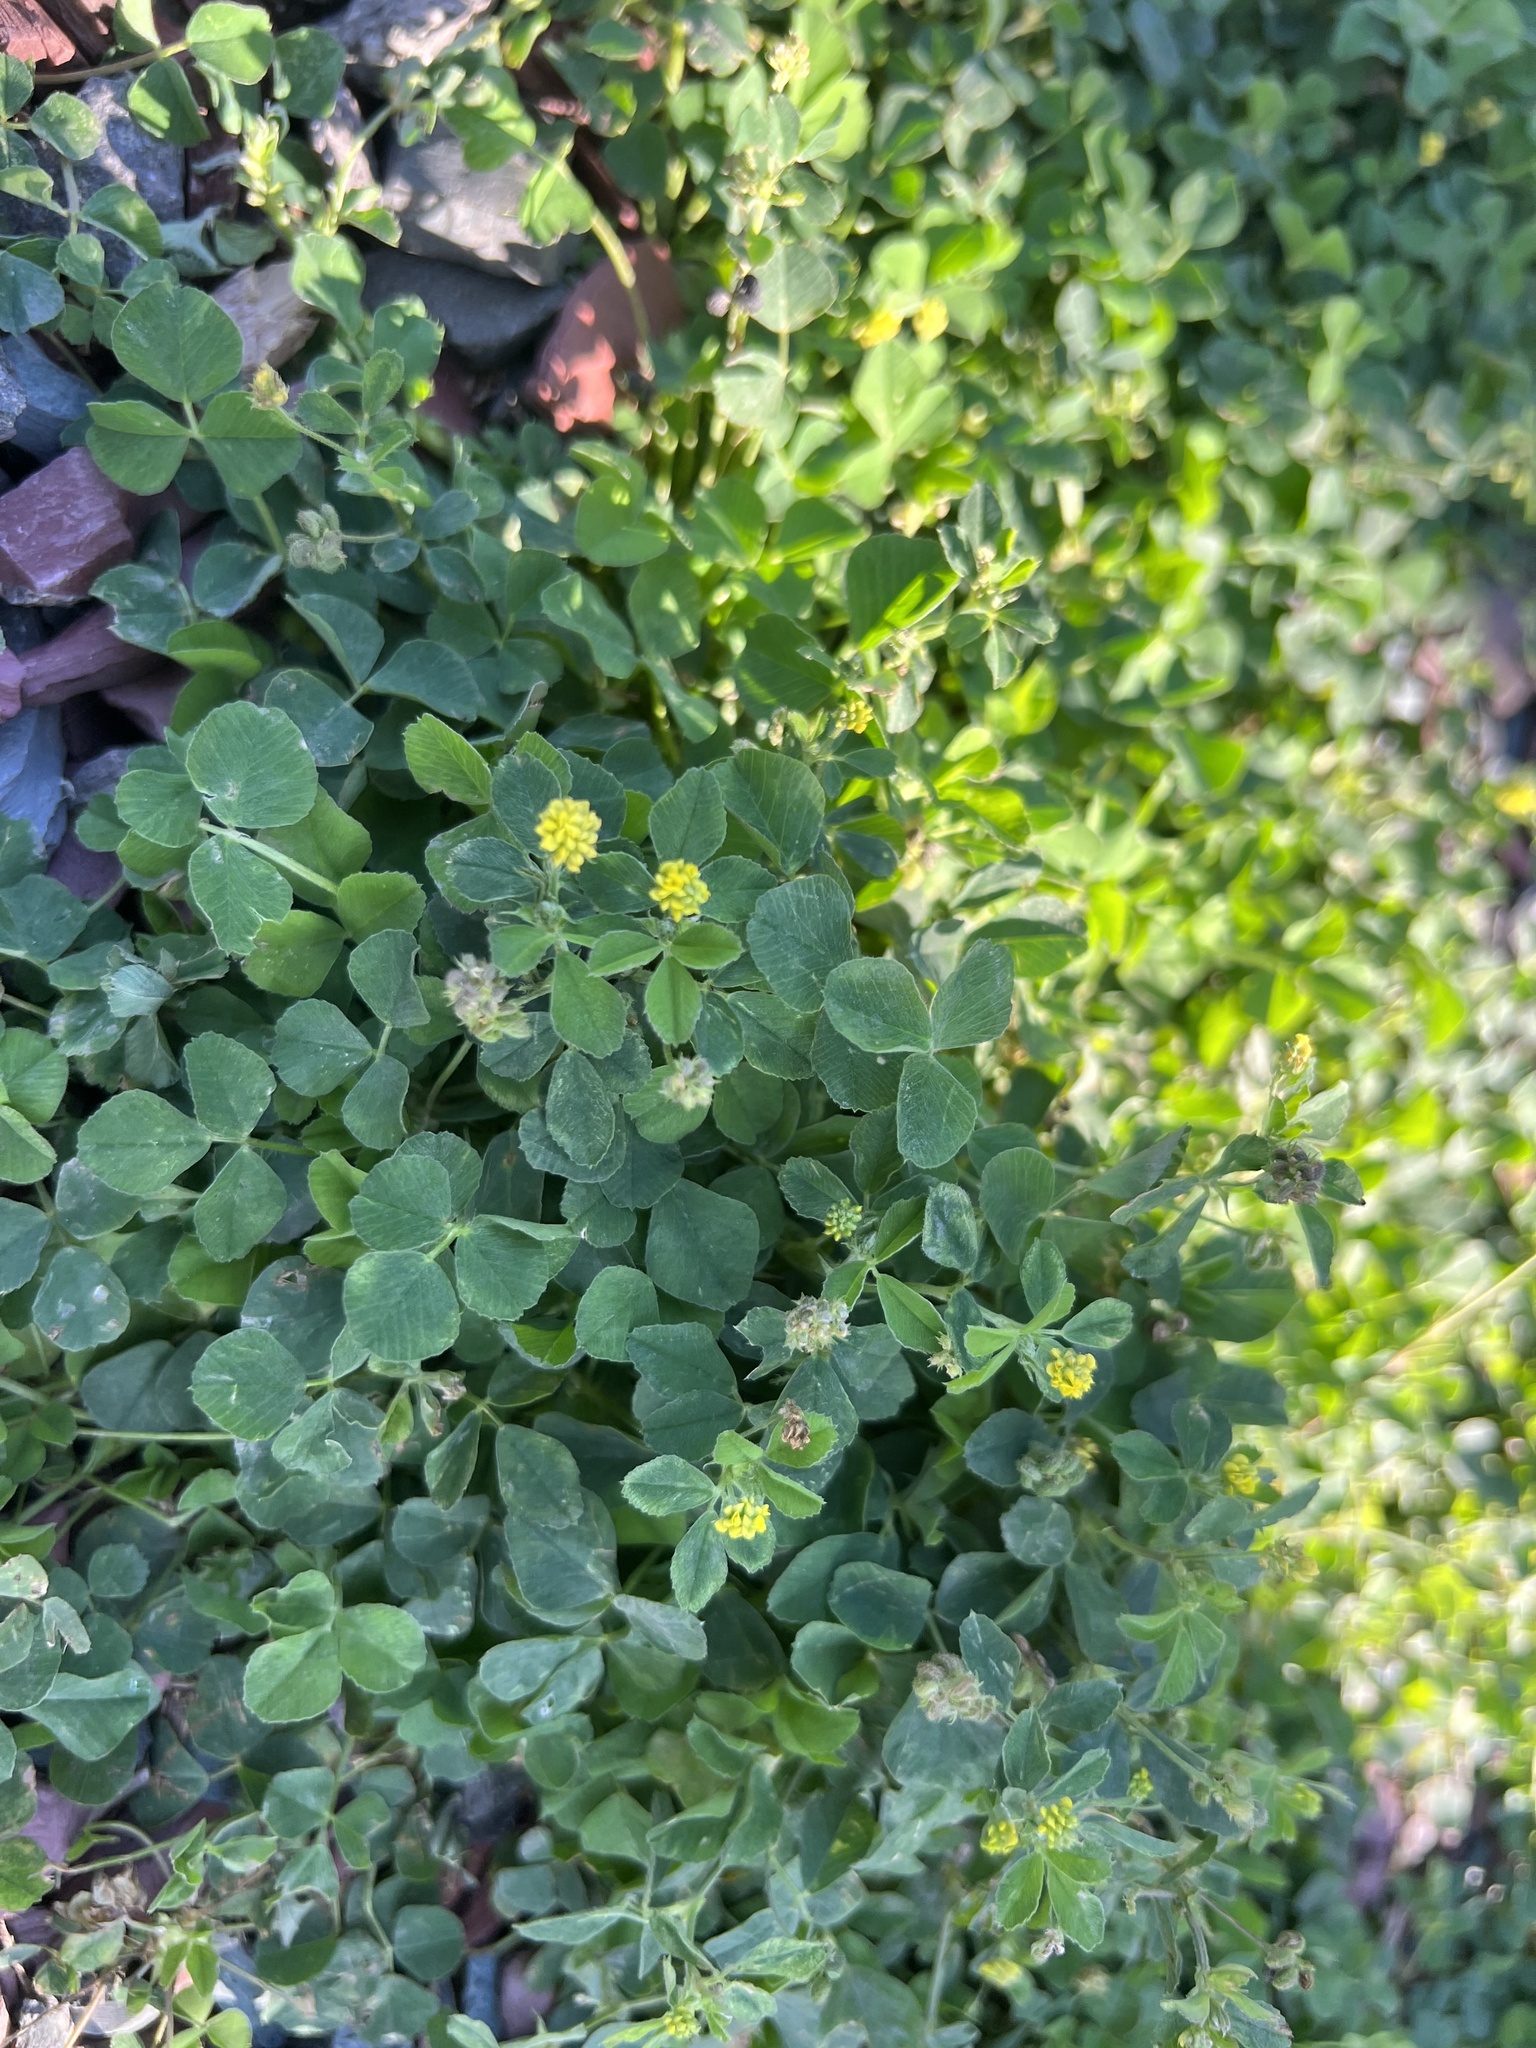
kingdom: Plantae
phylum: Tracheophyta
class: Magnoliopsida
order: Fabales
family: Fabaceae
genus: Medicago
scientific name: Medicago lupulina
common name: Black medick
